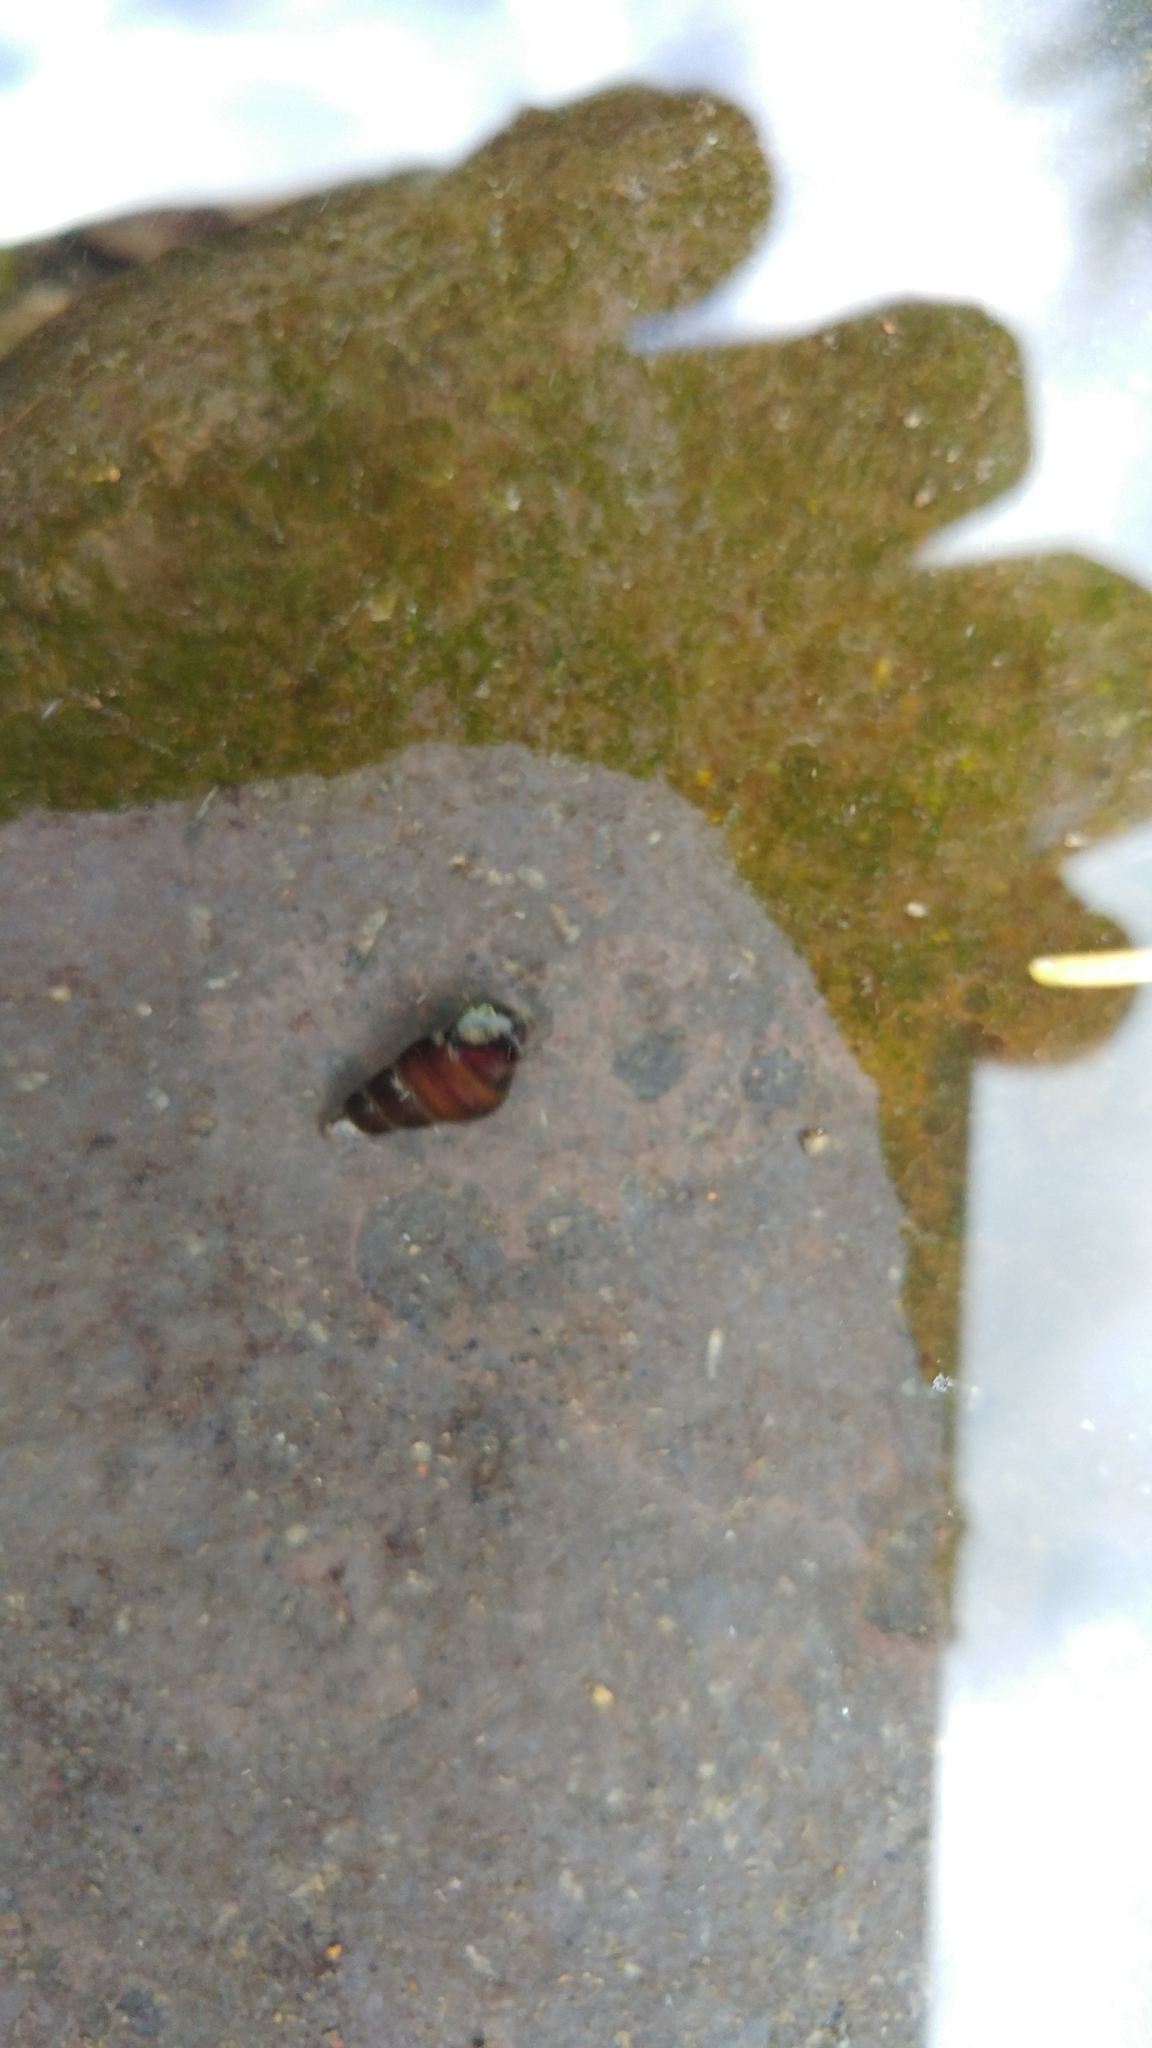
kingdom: Animalia
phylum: Mollusca
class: Gastropoda
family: Semisulcospiridae
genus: Juga
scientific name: Juga plicifera
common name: Pleated juga
